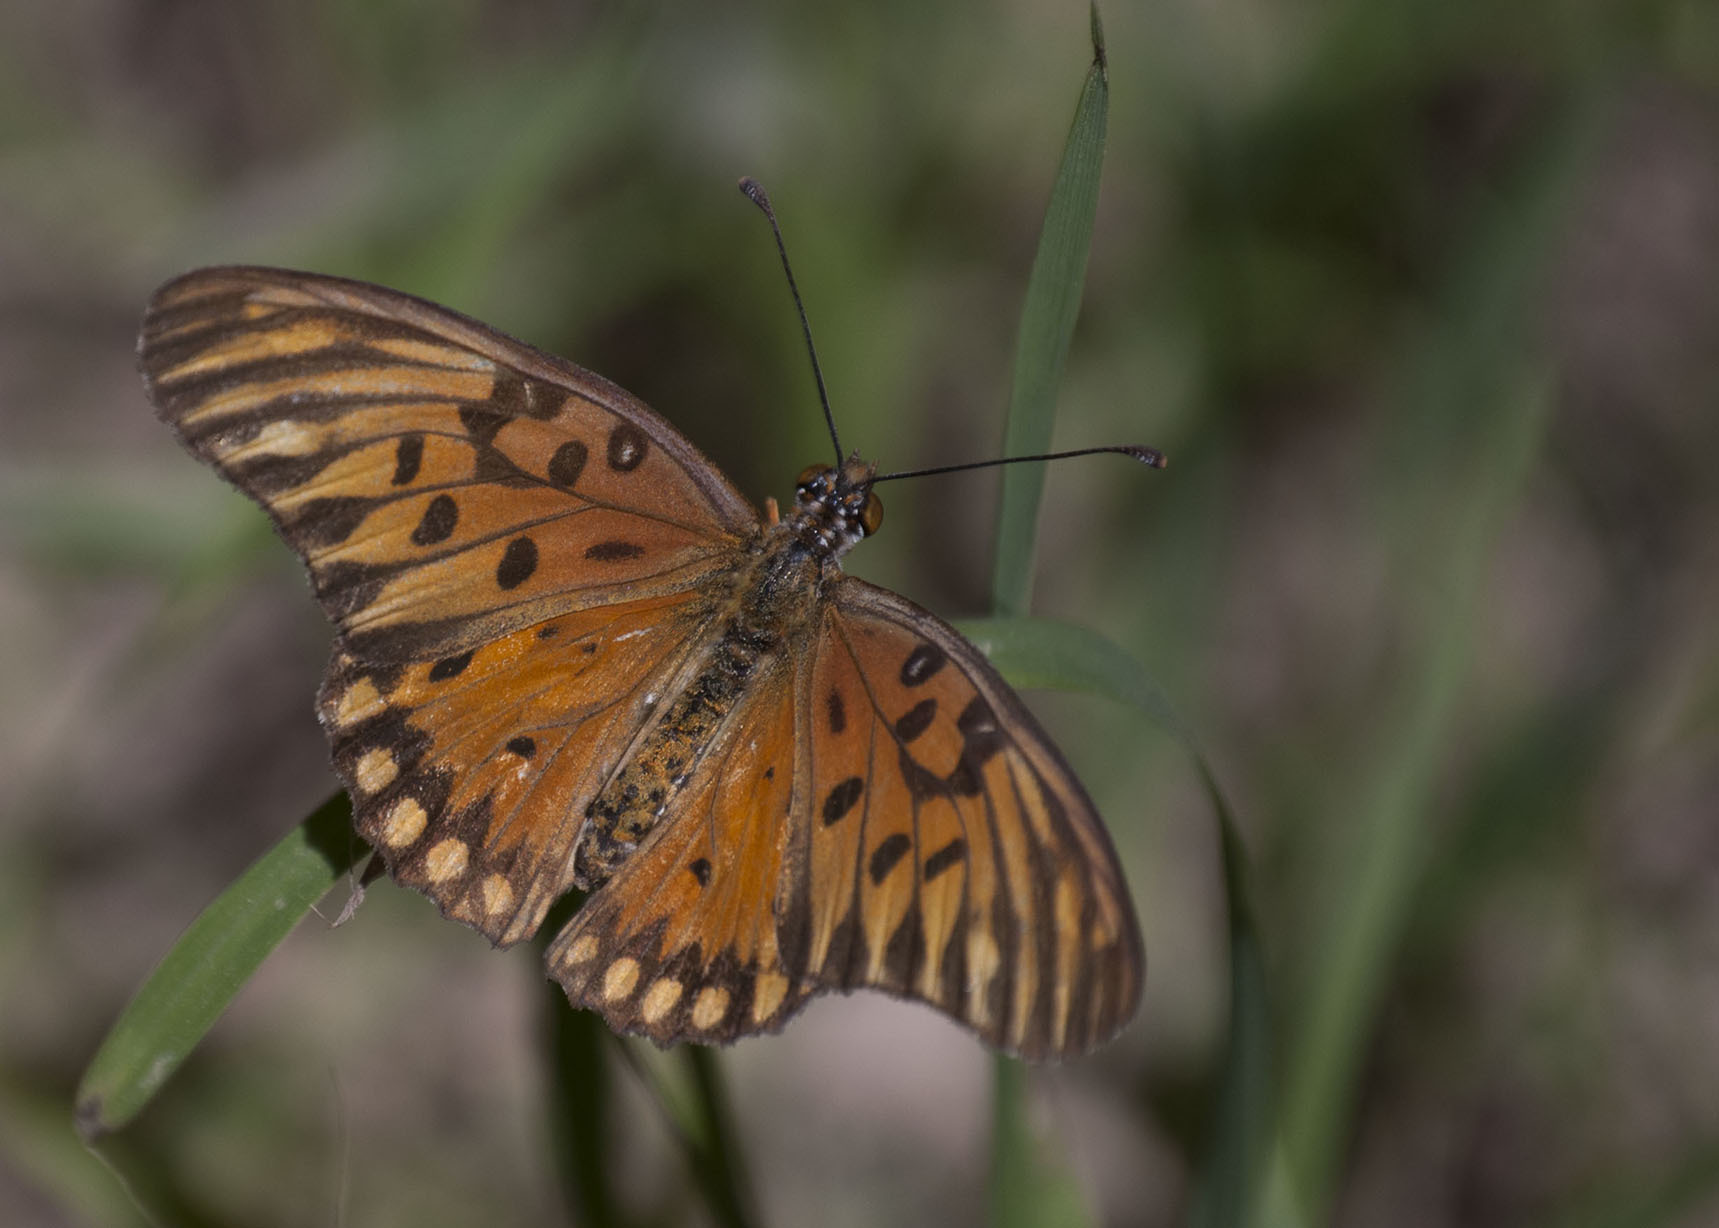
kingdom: Animalia
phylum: Arthropoda
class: Insecta
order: Lepidoptera
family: Nymphalidae
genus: Dione
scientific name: Dione vanillae
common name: Gulf fritillary
